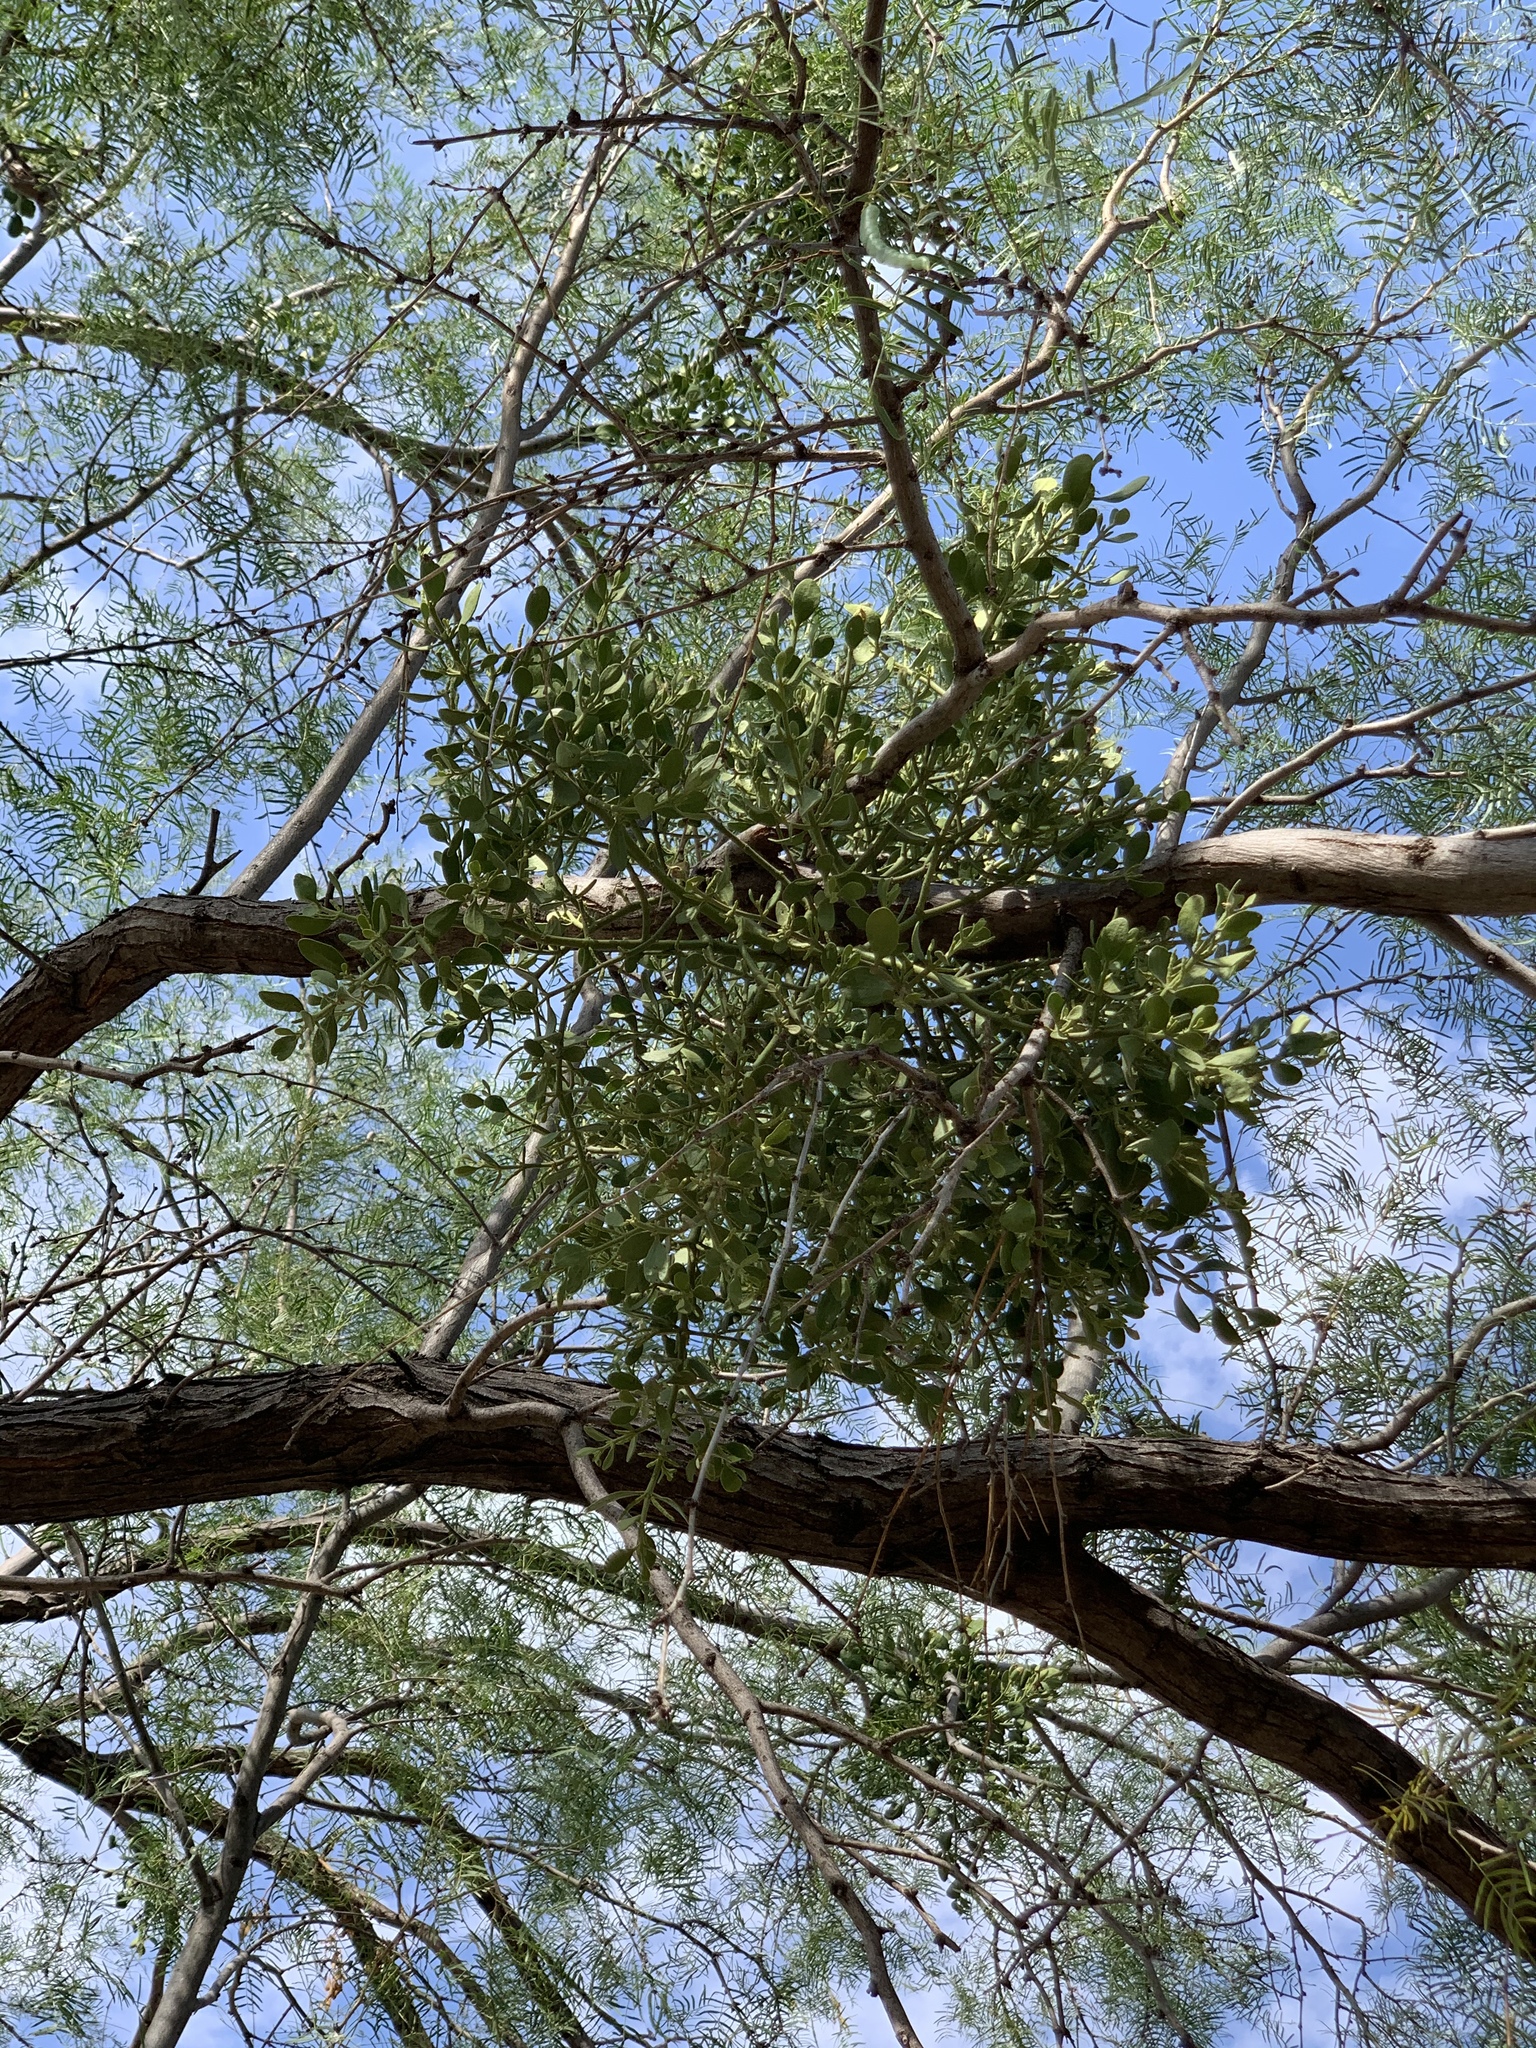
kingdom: Plantae
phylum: Tracheophyta
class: Magnoliopsida
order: Santalales
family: Viscaceae
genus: Phoradendron
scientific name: Phoradendron leucarpum
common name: Pacific mistletoe
